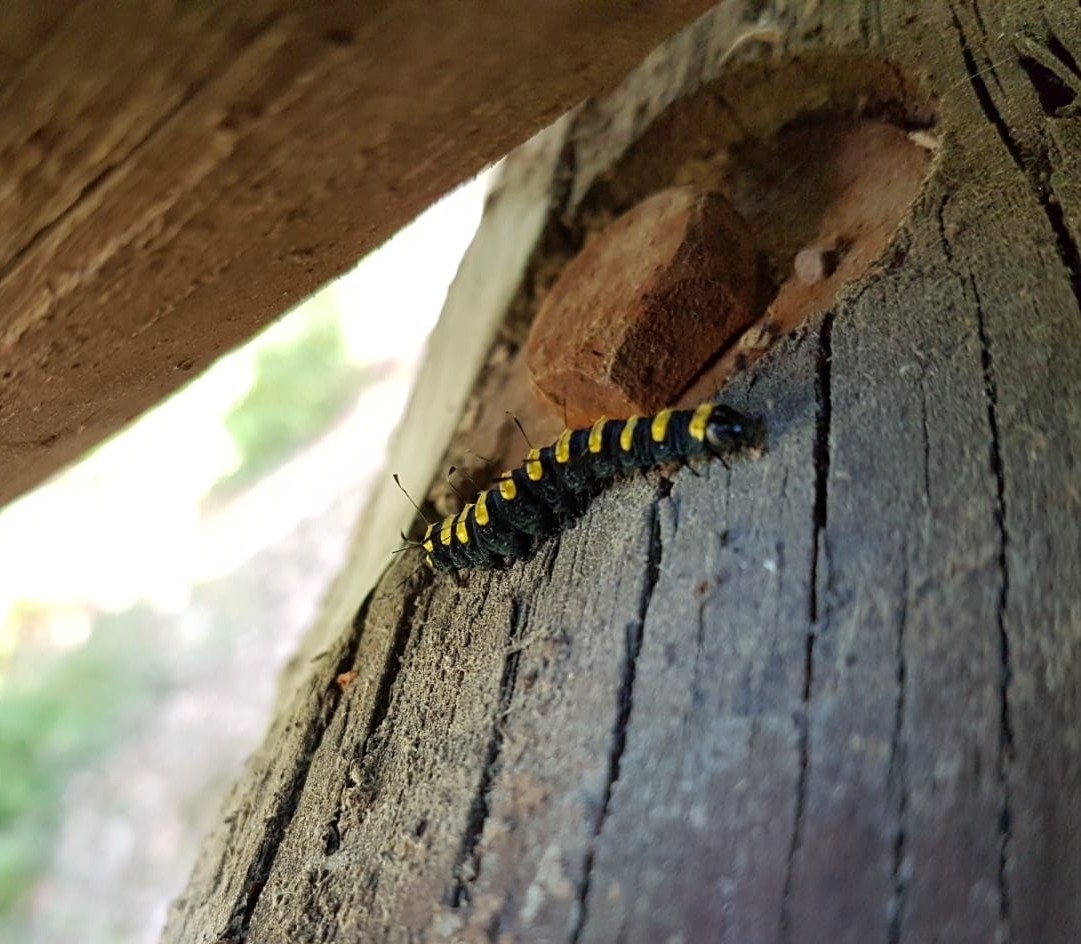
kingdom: Animalia
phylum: Arthropoda
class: Insecta
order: Lepidoptera
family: Noctuidae
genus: Acronicta
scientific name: Acronicta alni
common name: Alder moth
